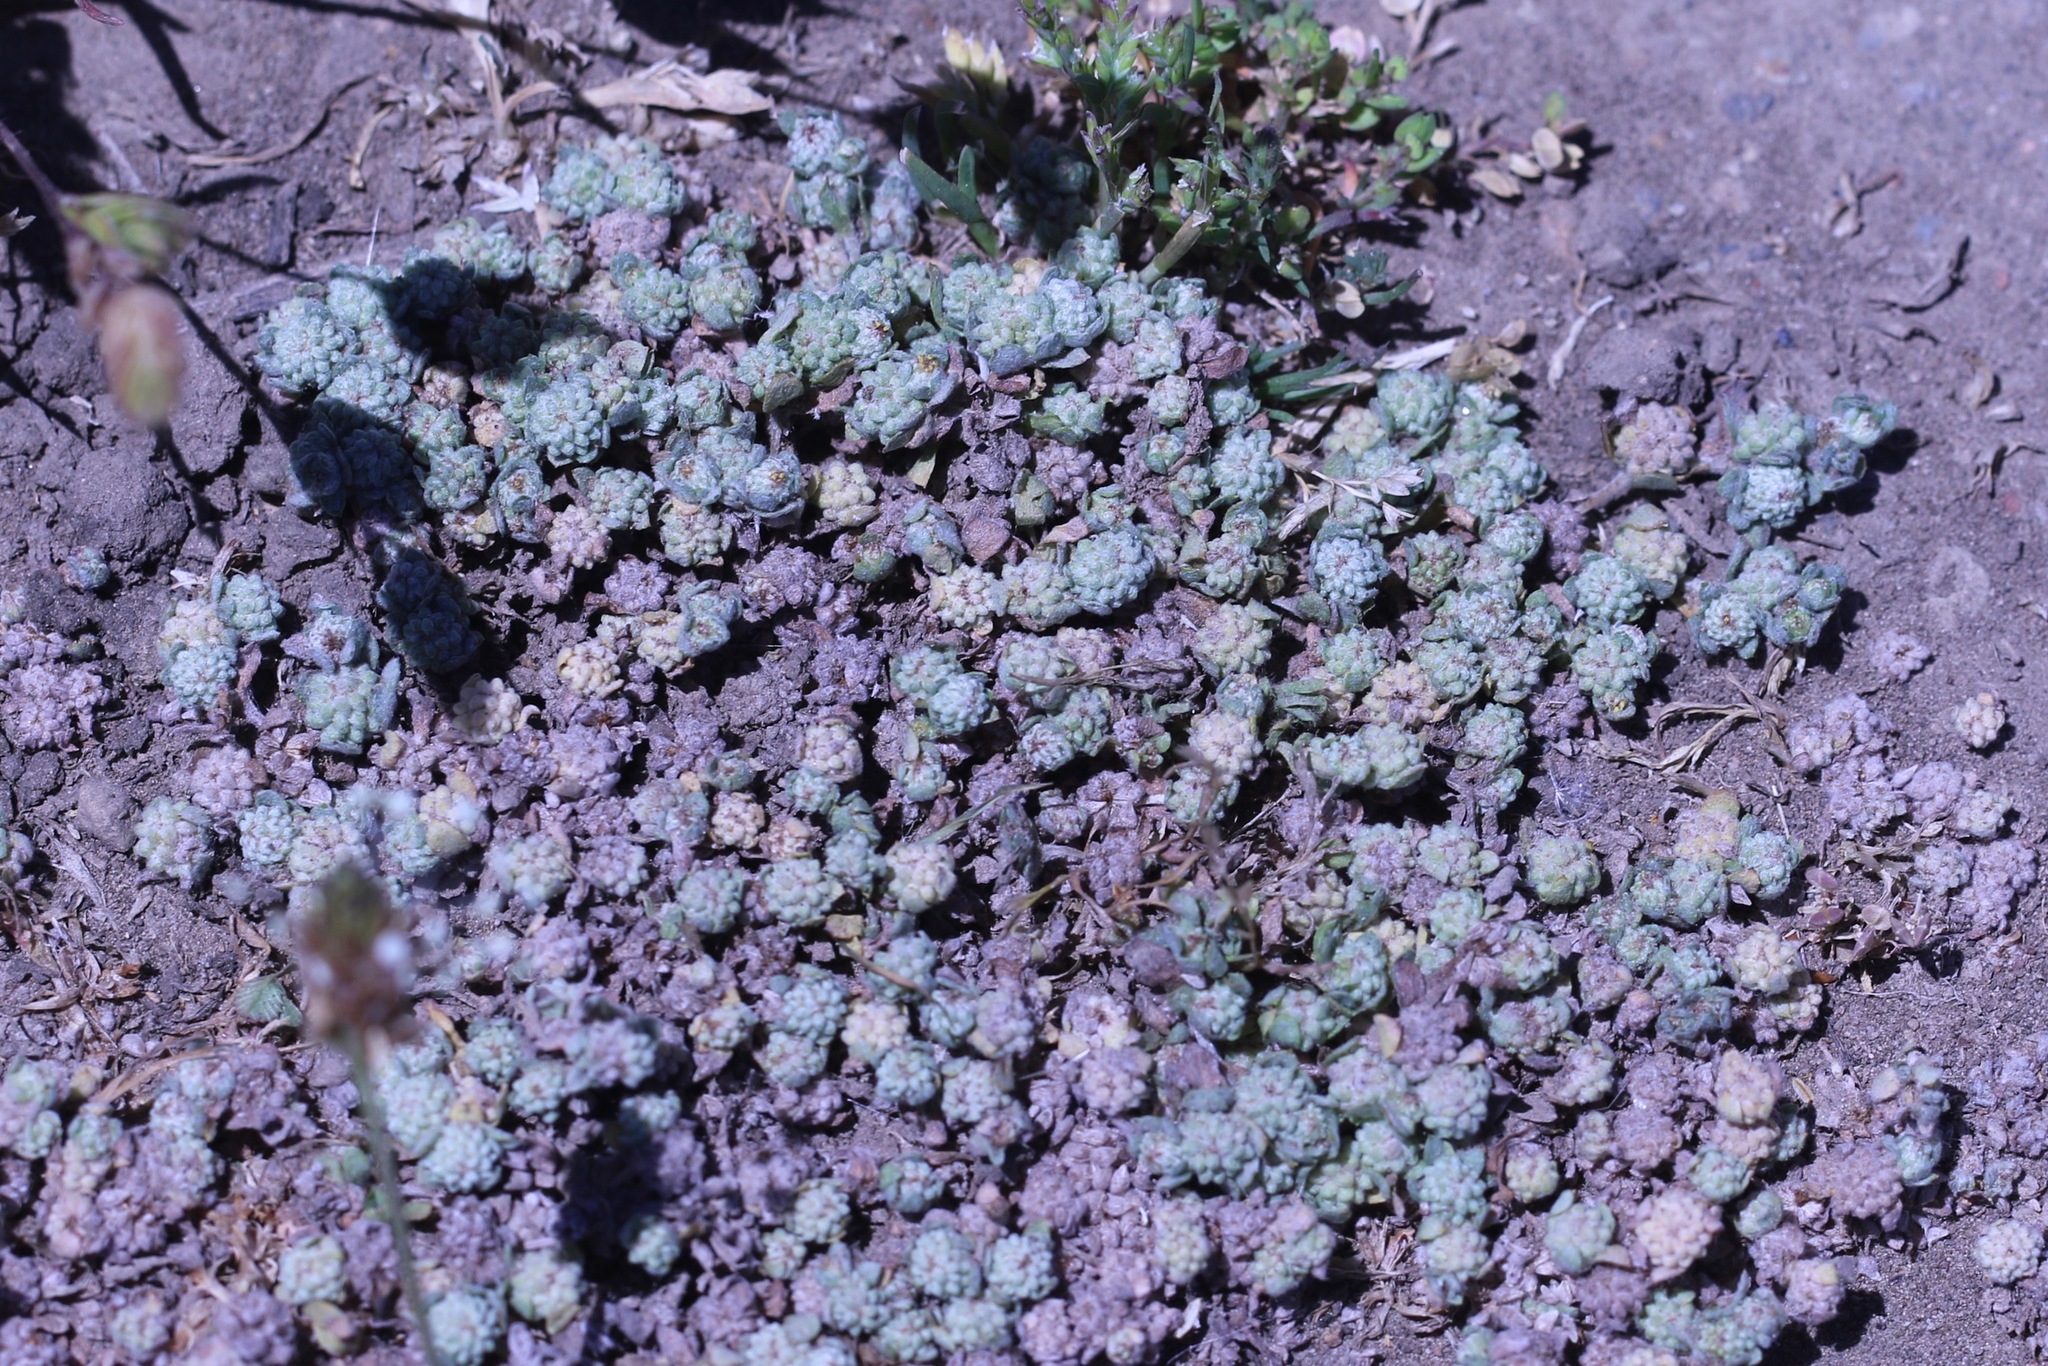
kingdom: Plantae
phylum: Tracheophyta
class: Magnoliopsida
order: Asterales
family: Asteraceae
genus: Psilocarphus
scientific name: Psilocarphus tenellus
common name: Slender woolly-marbles
